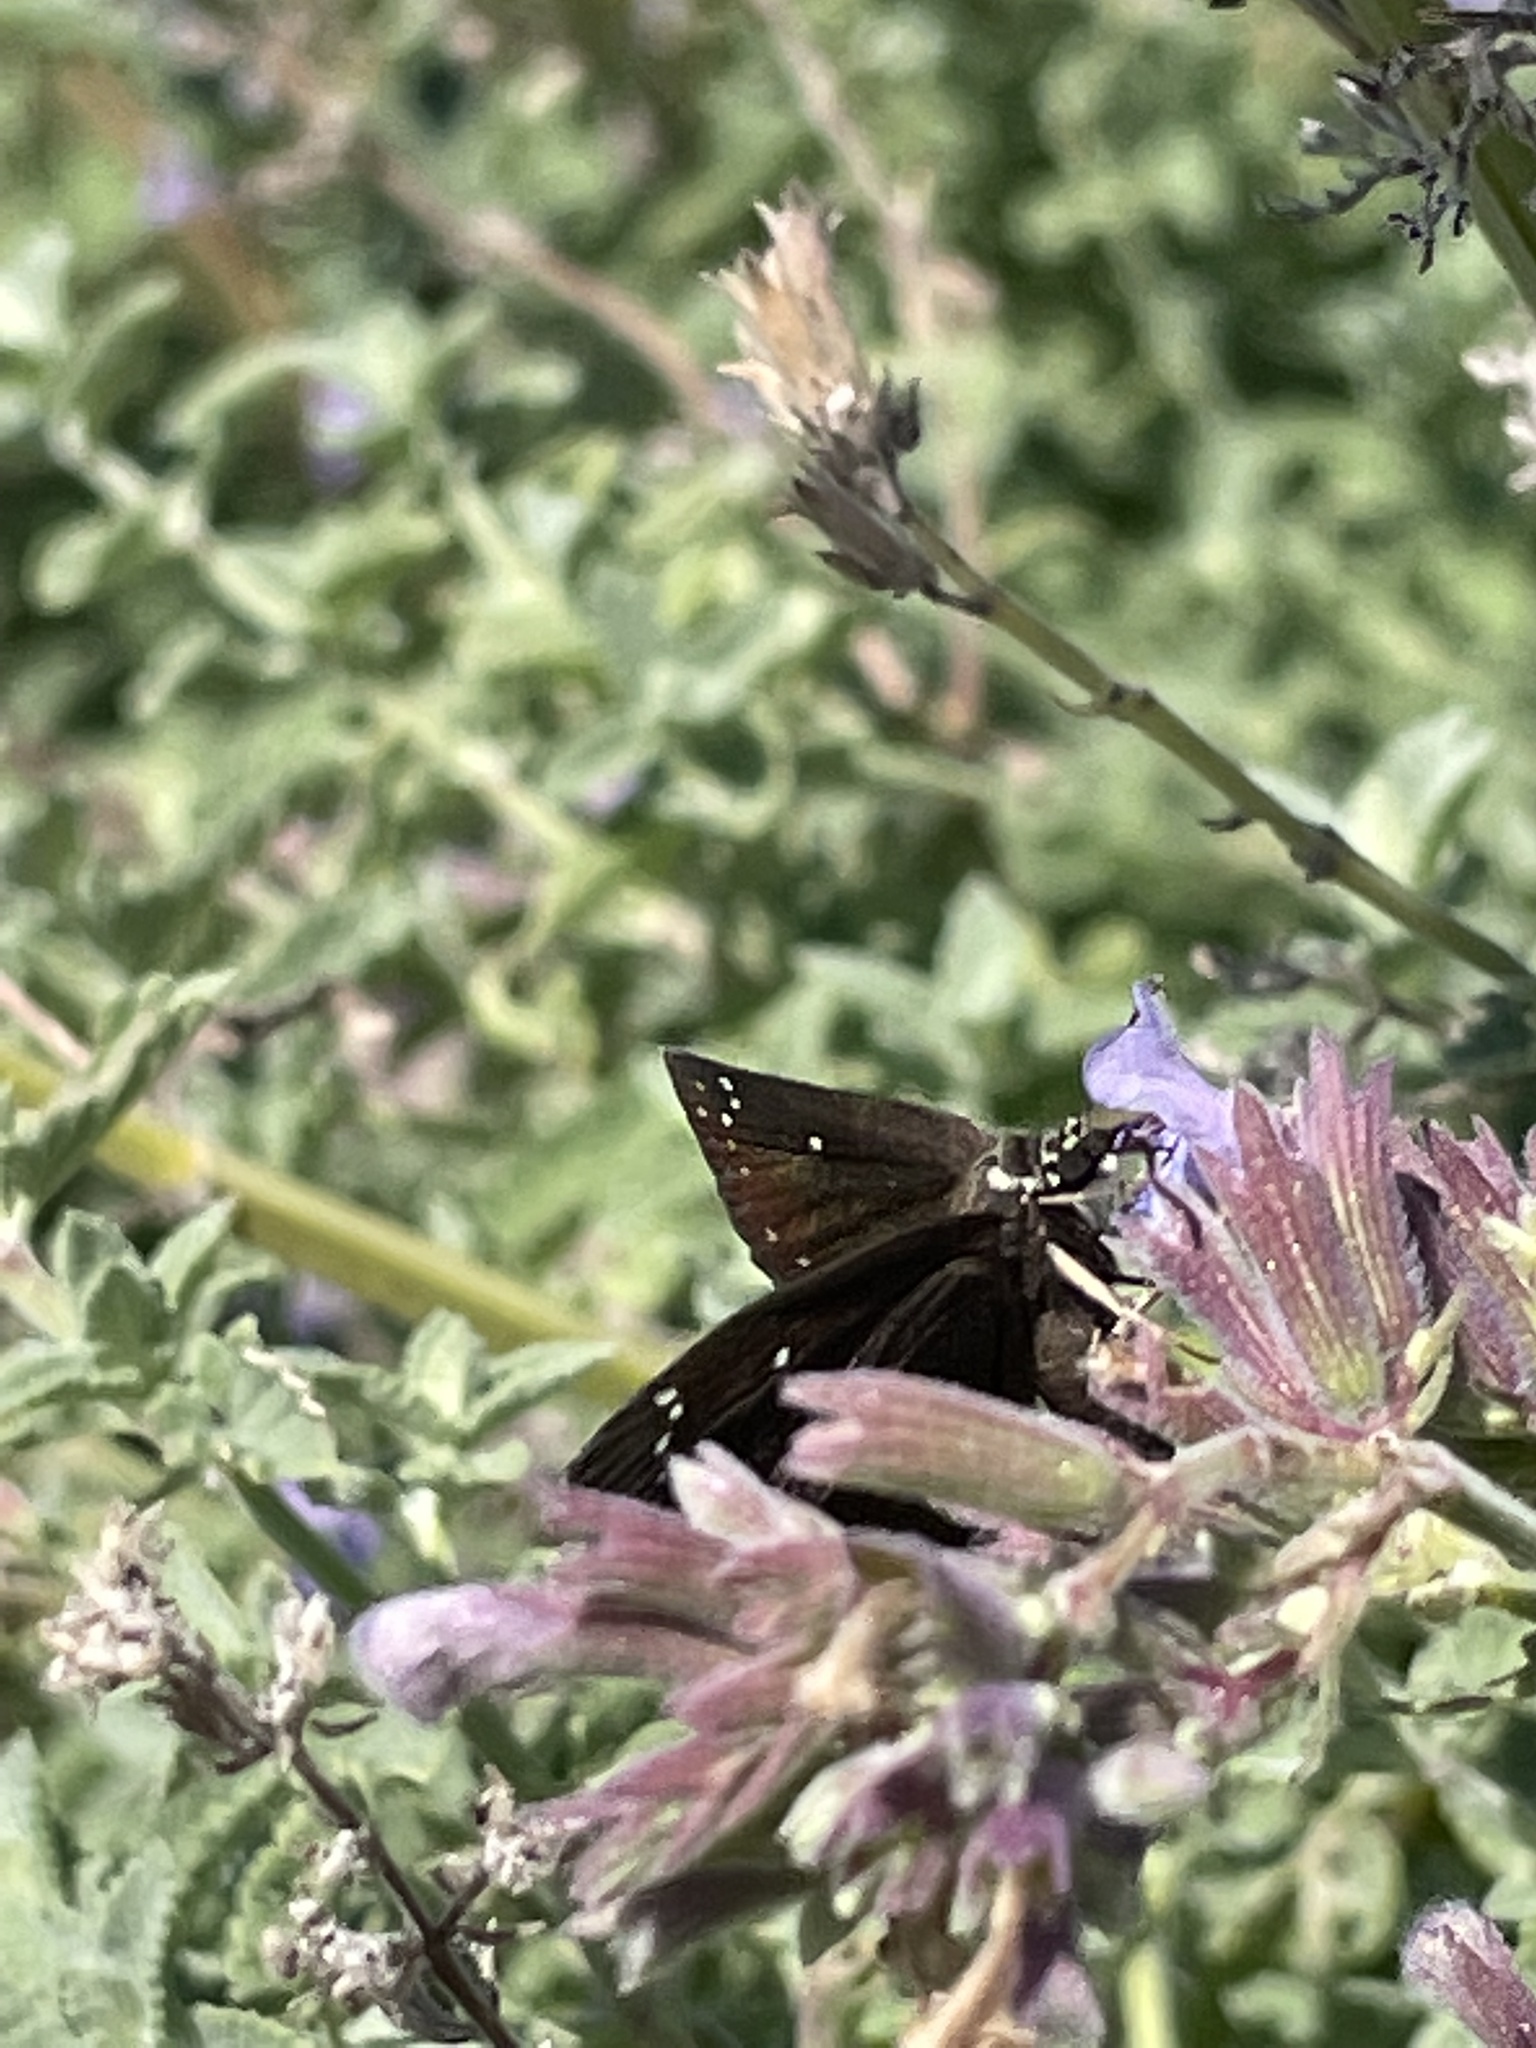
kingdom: Animalia
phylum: Arthropoda
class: Insecta
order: Lepidoptera
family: Hesperiidae
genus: Pholisora
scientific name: Pholisora catullus
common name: Common sootywing
